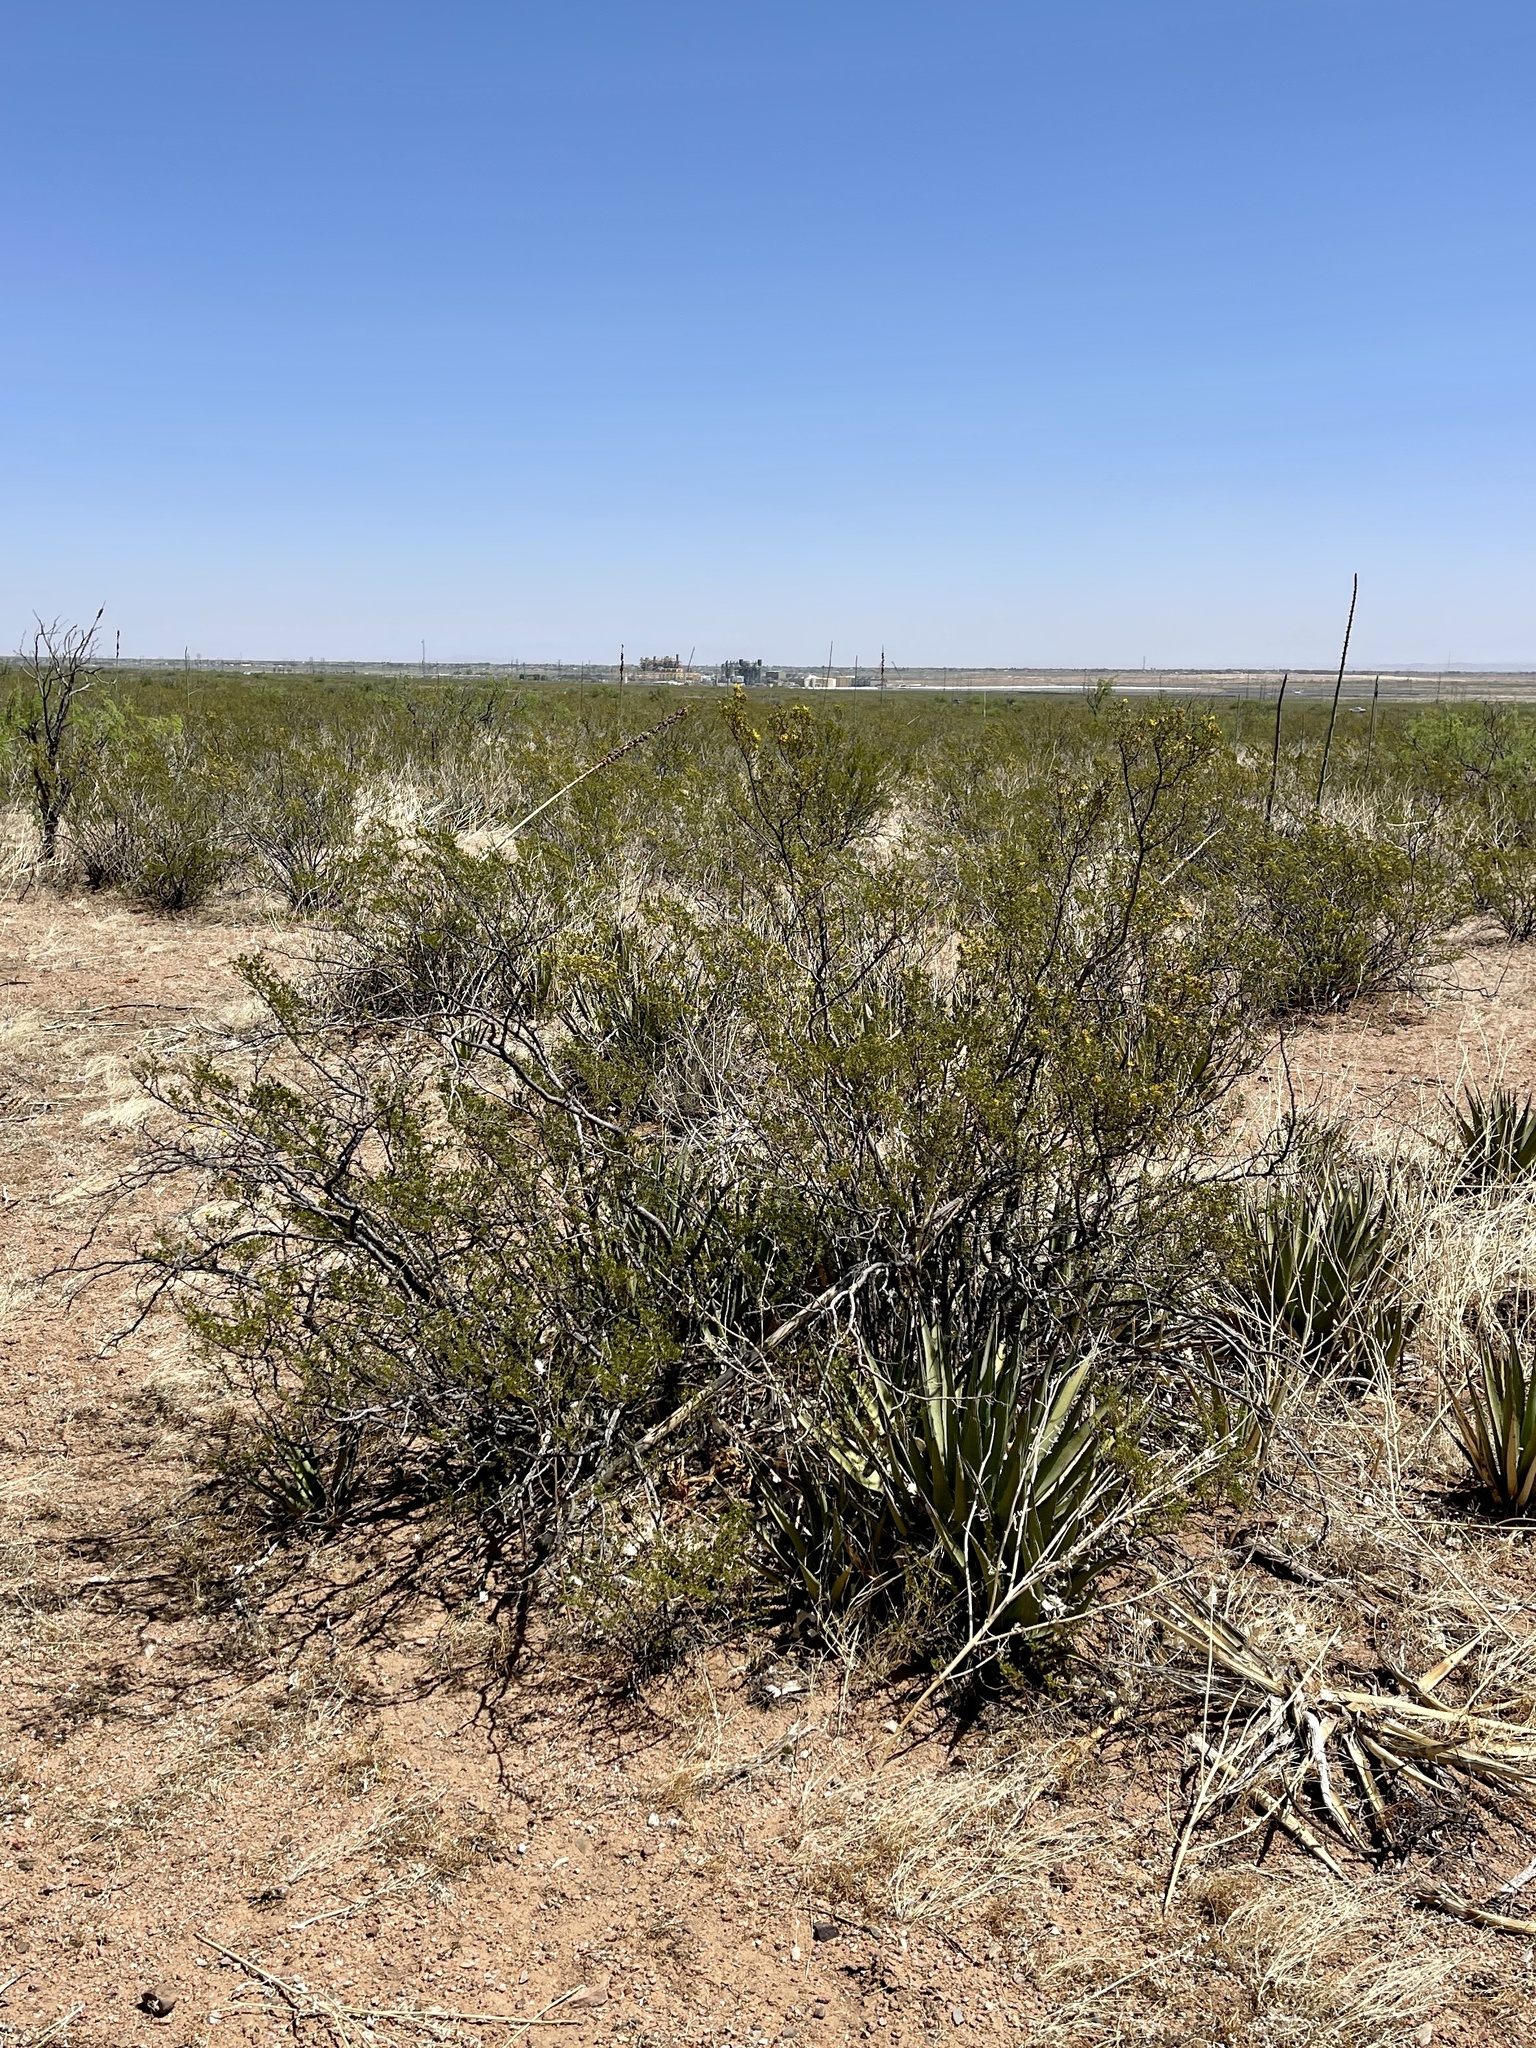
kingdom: Plantae
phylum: Tracheophyta
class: Magnoliopsida
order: Zygophyllales
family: Zygophyllaceae
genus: Larrea
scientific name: Larrea tridentata
